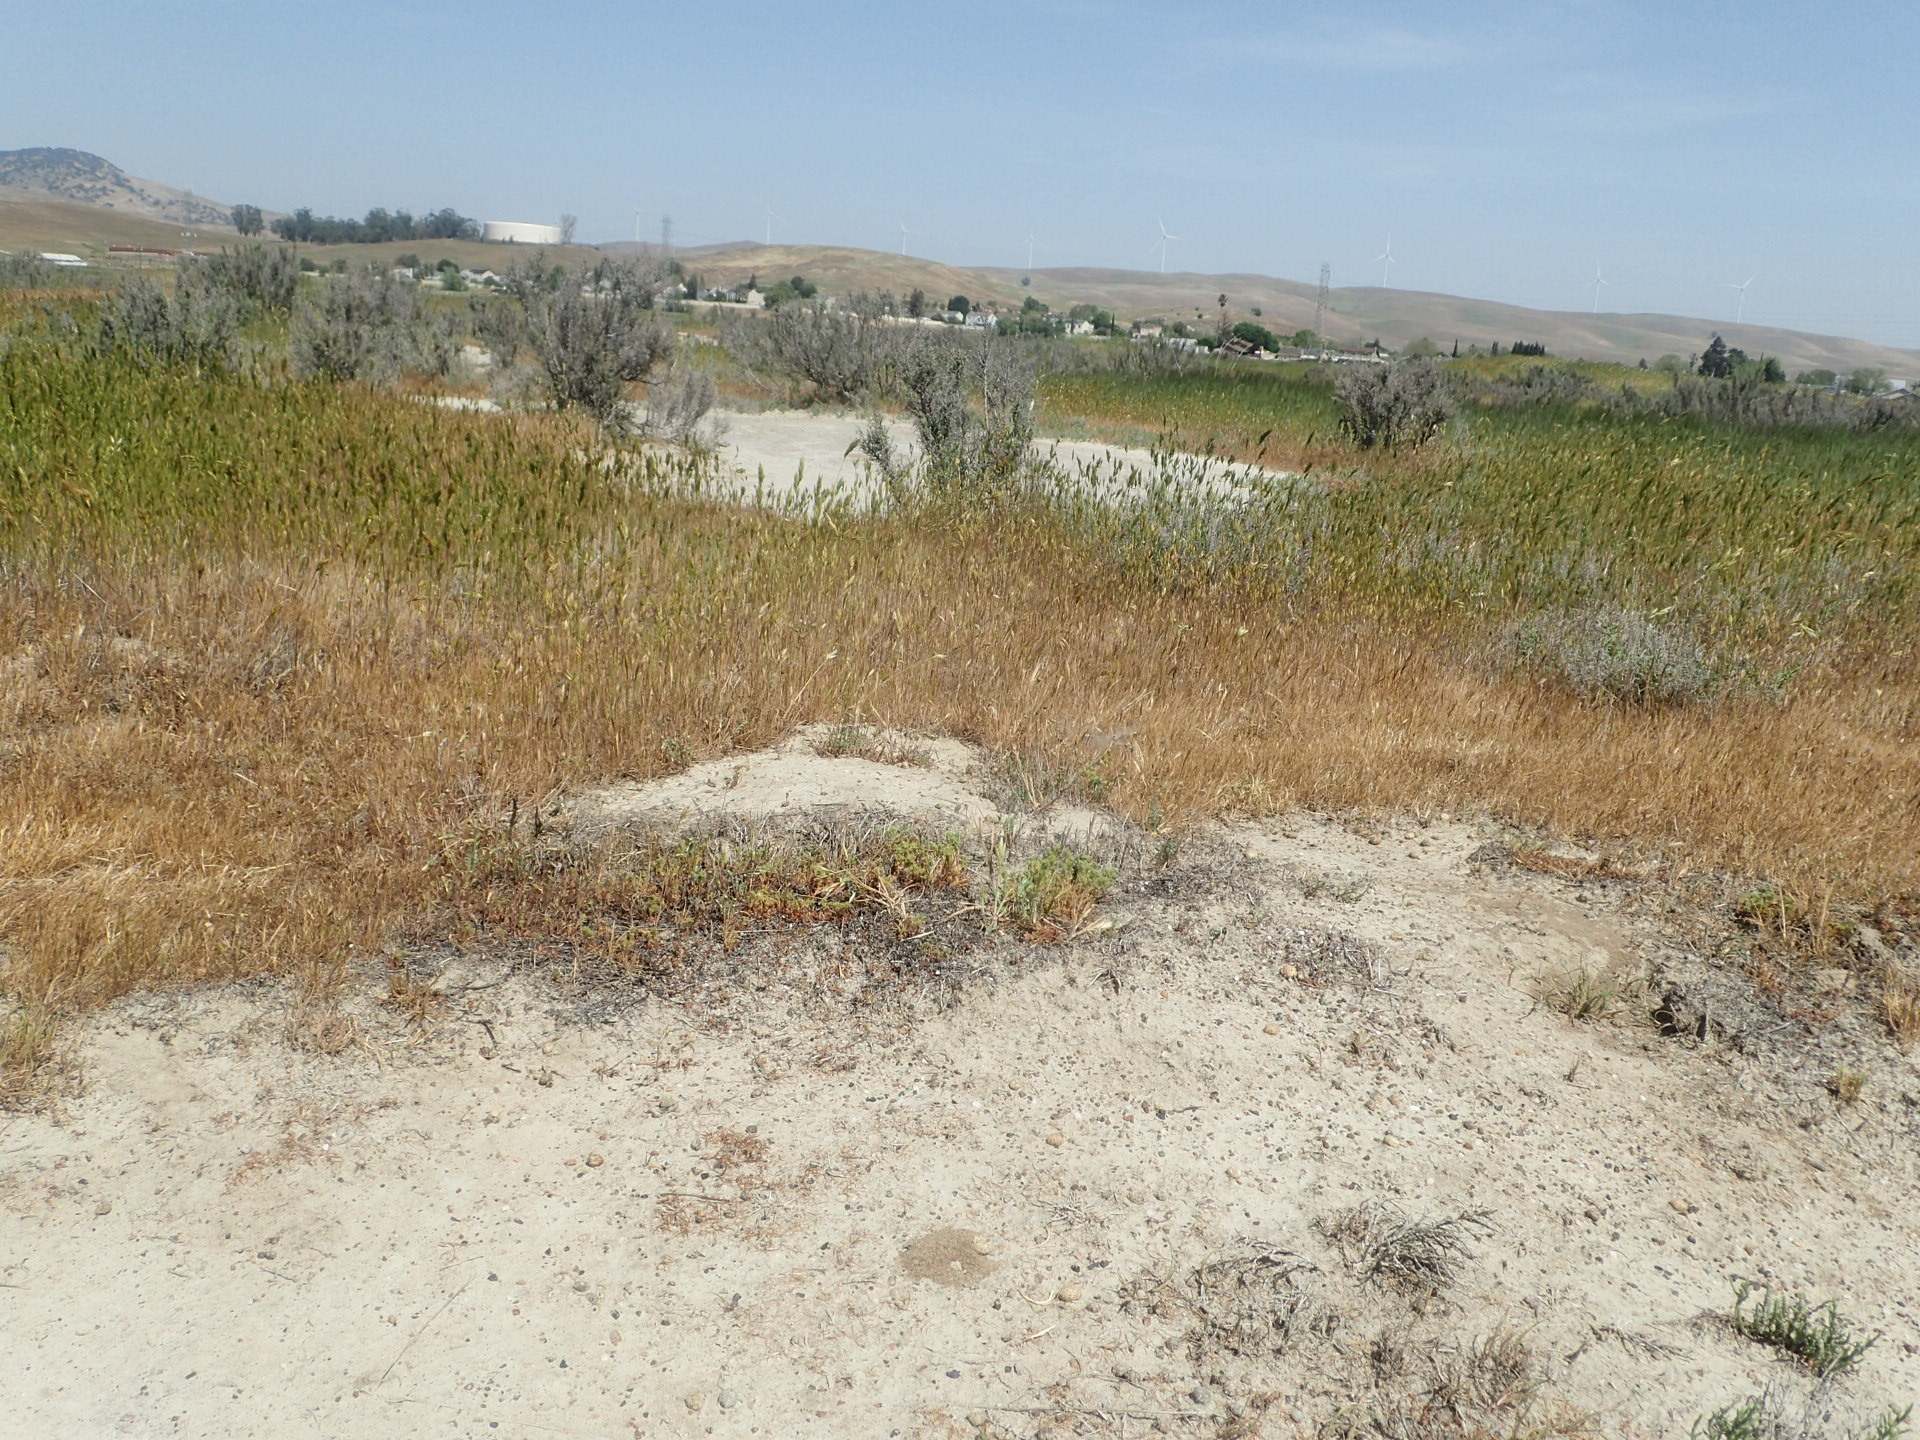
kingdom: Plantae
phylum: Tracheophyta
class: Magnoliopsida
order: Caryophyllales
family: Polygonaceae
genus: Lastarriaea
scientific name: Lastarriaea coriacea
